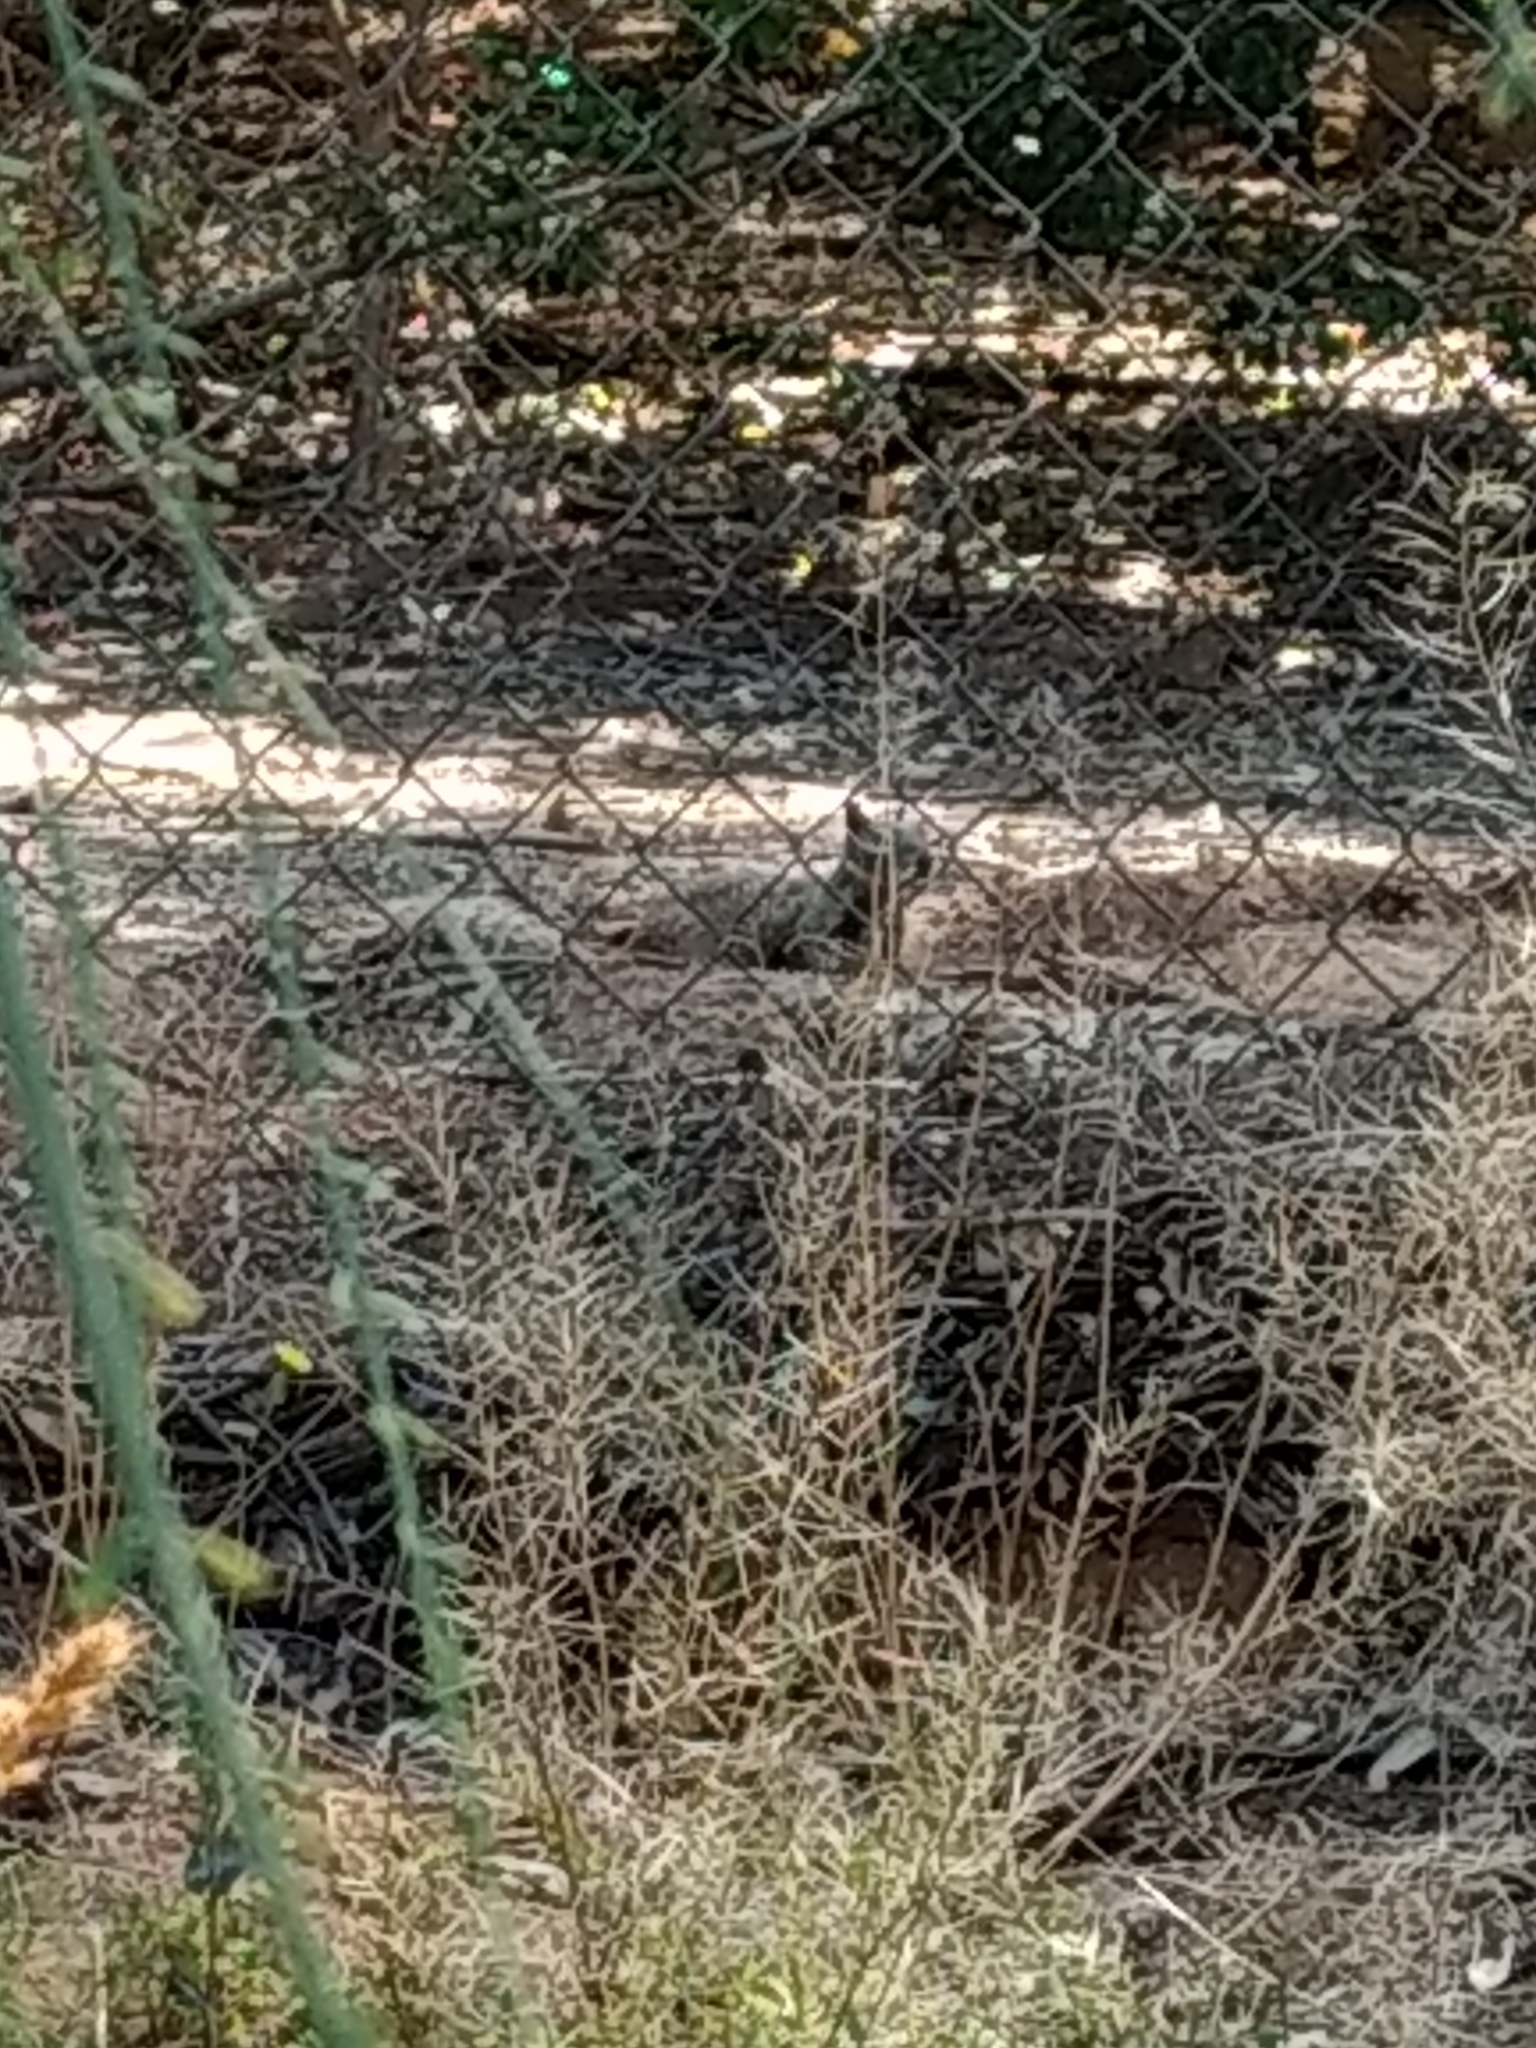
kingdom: Animalia
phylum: Chordata
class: Mammalia
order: Rodentia
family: Sciuridae
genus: Otospermophilus
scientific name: Otospermophilus beecheyi
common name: California ground squirrel
